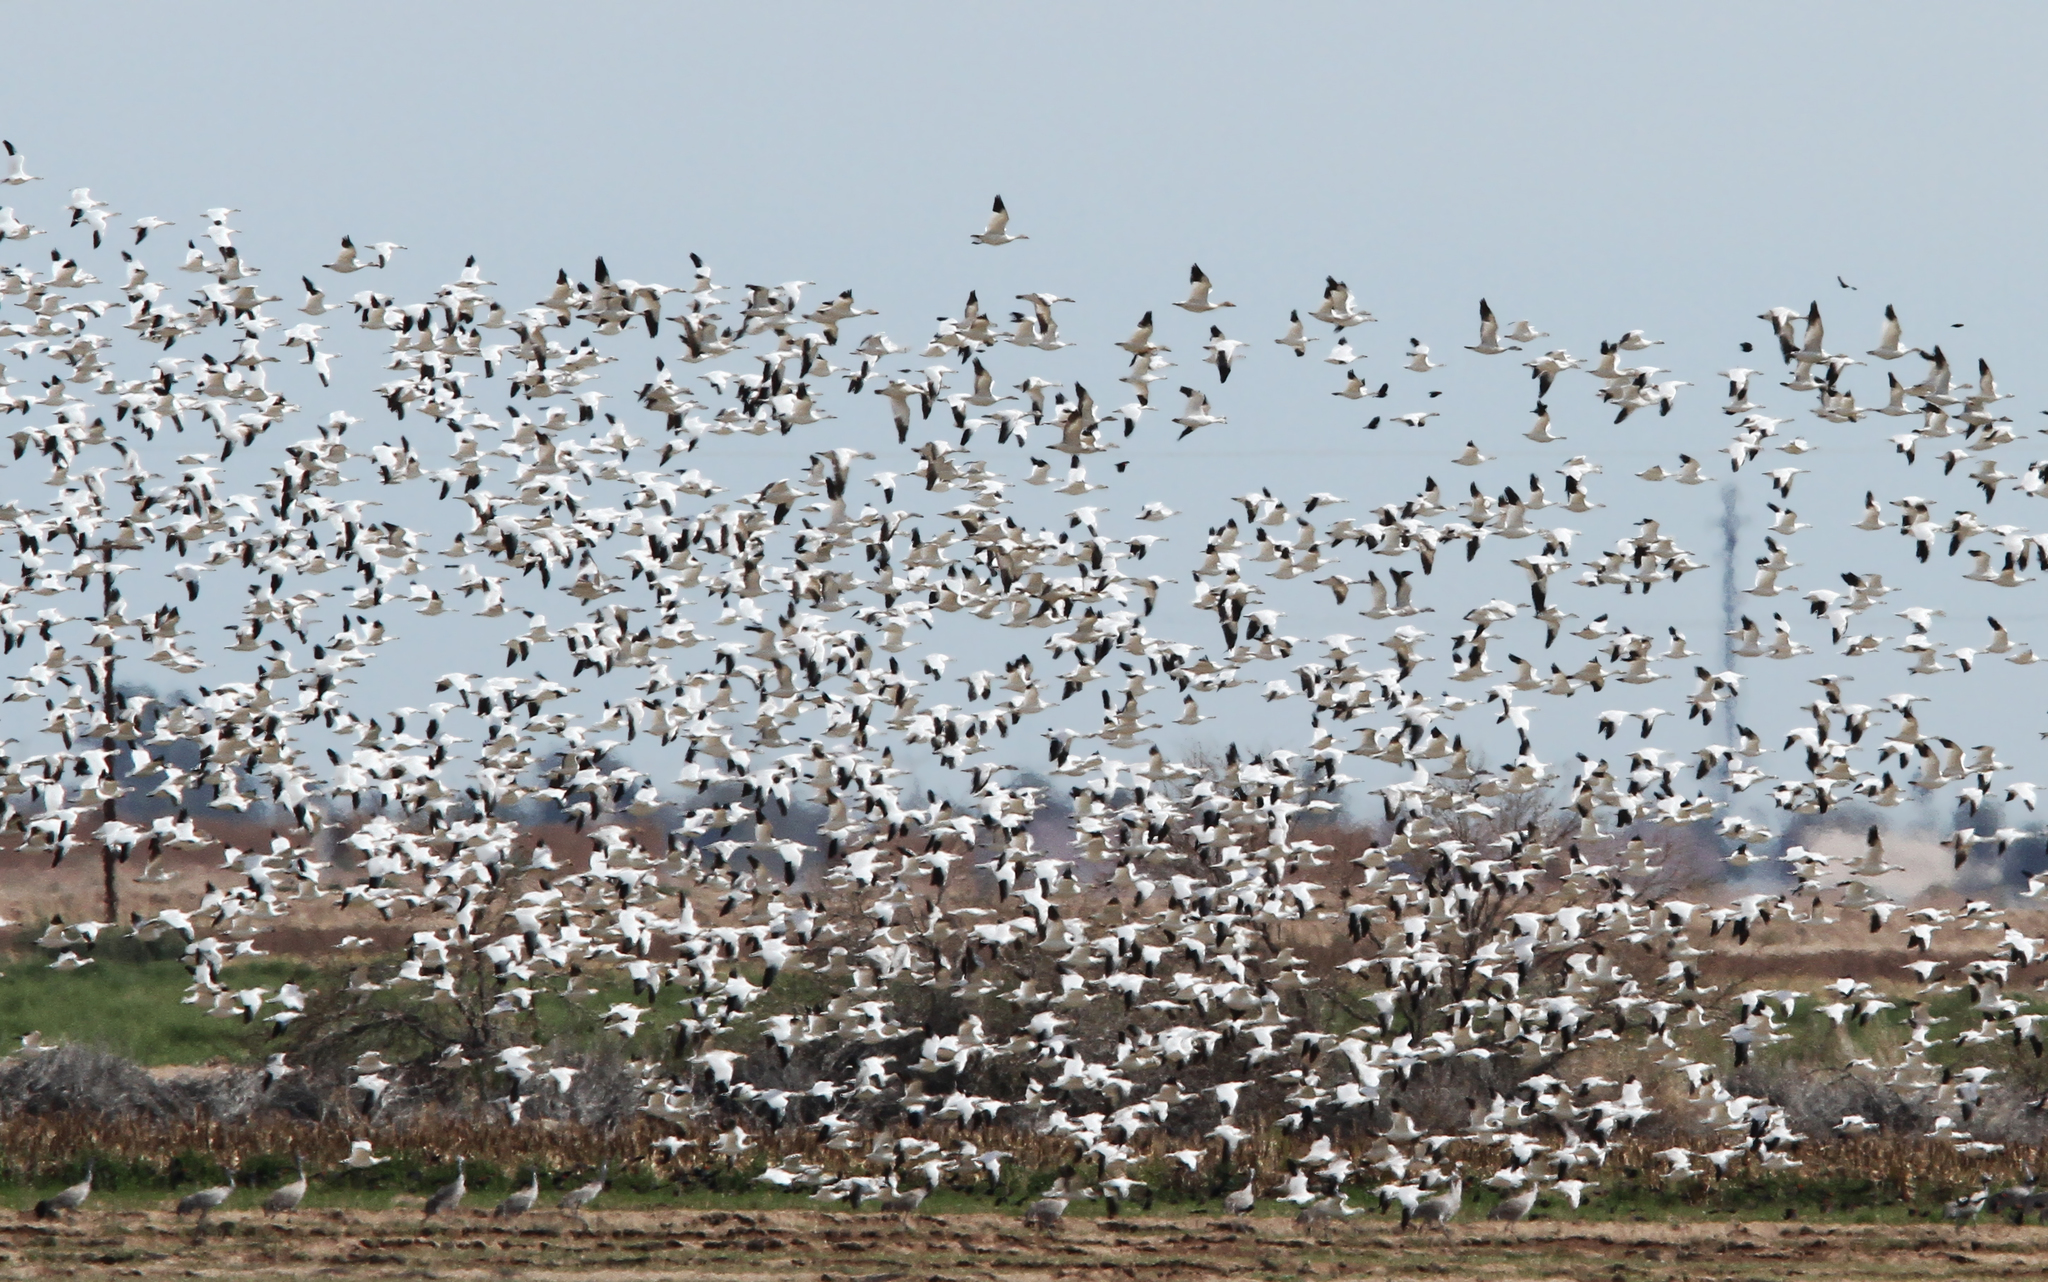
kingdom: Animalia
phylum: Chordata
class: Aves
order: Anseriformes
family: Anatidae
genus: Anser
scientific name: Anser caerulescens
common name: Snow goose
